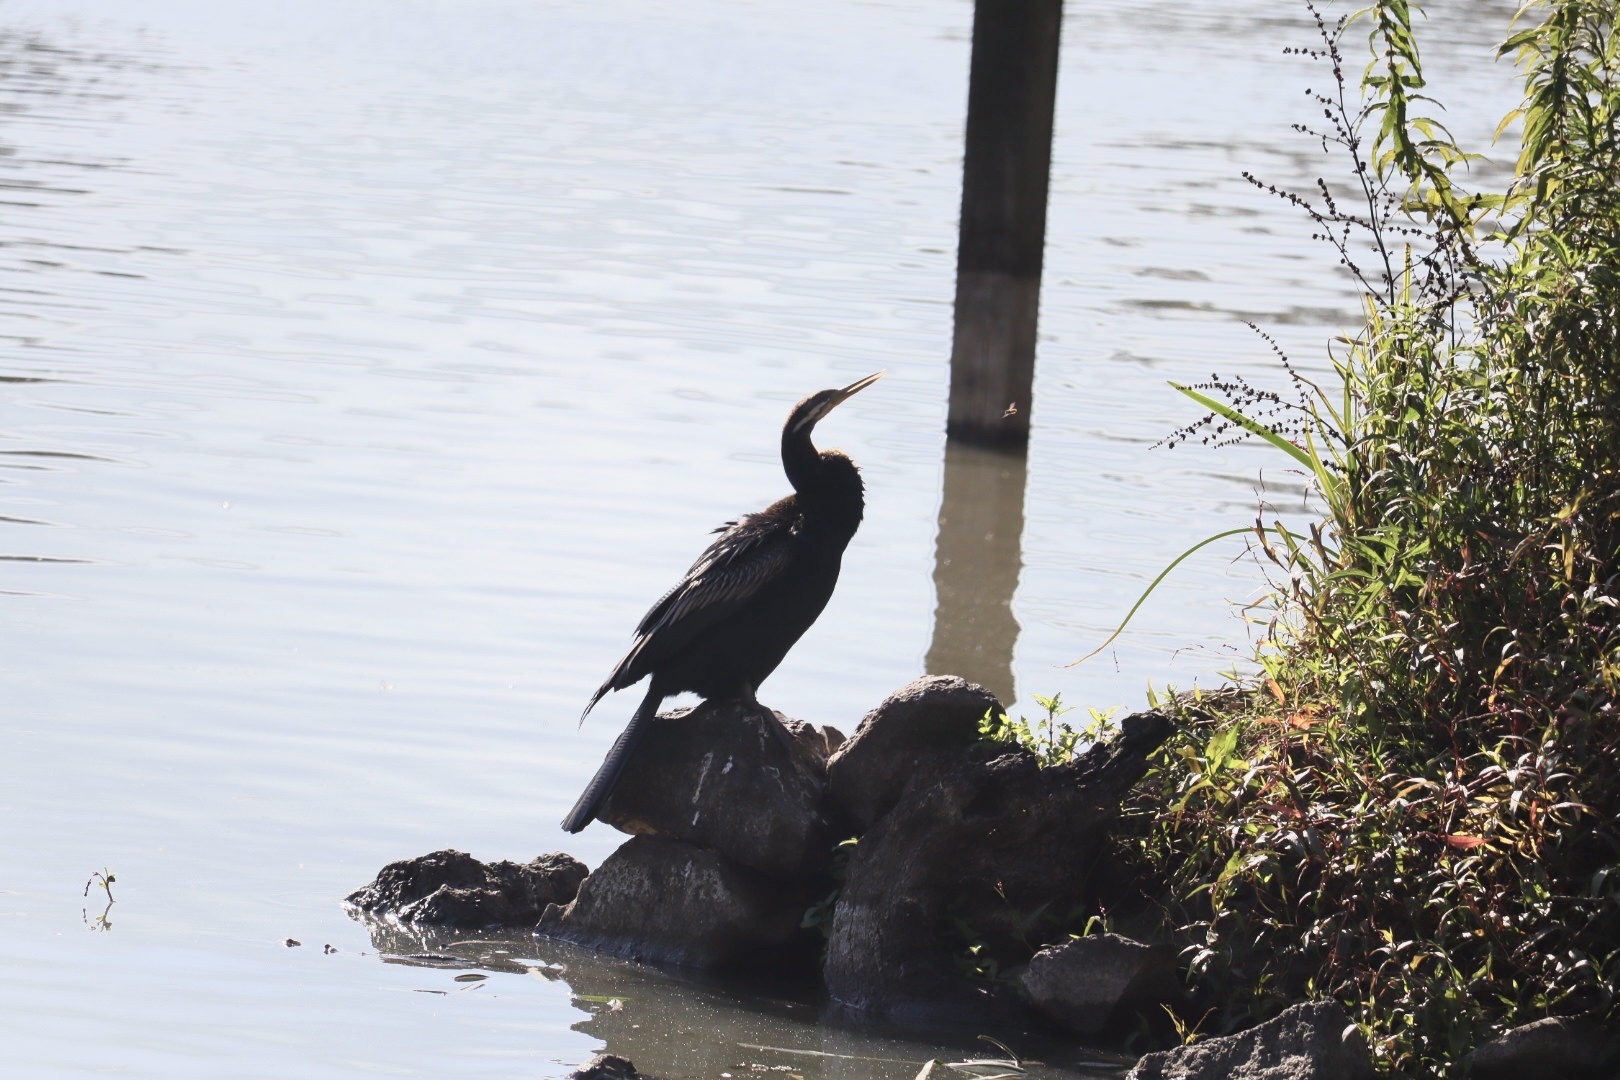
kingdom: Animalia
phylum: Chordata
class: Aves
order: Suliformes
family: Anhingidae
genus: Anhinga
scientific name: Anhinga novaehollandiae
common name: Australasian darter
